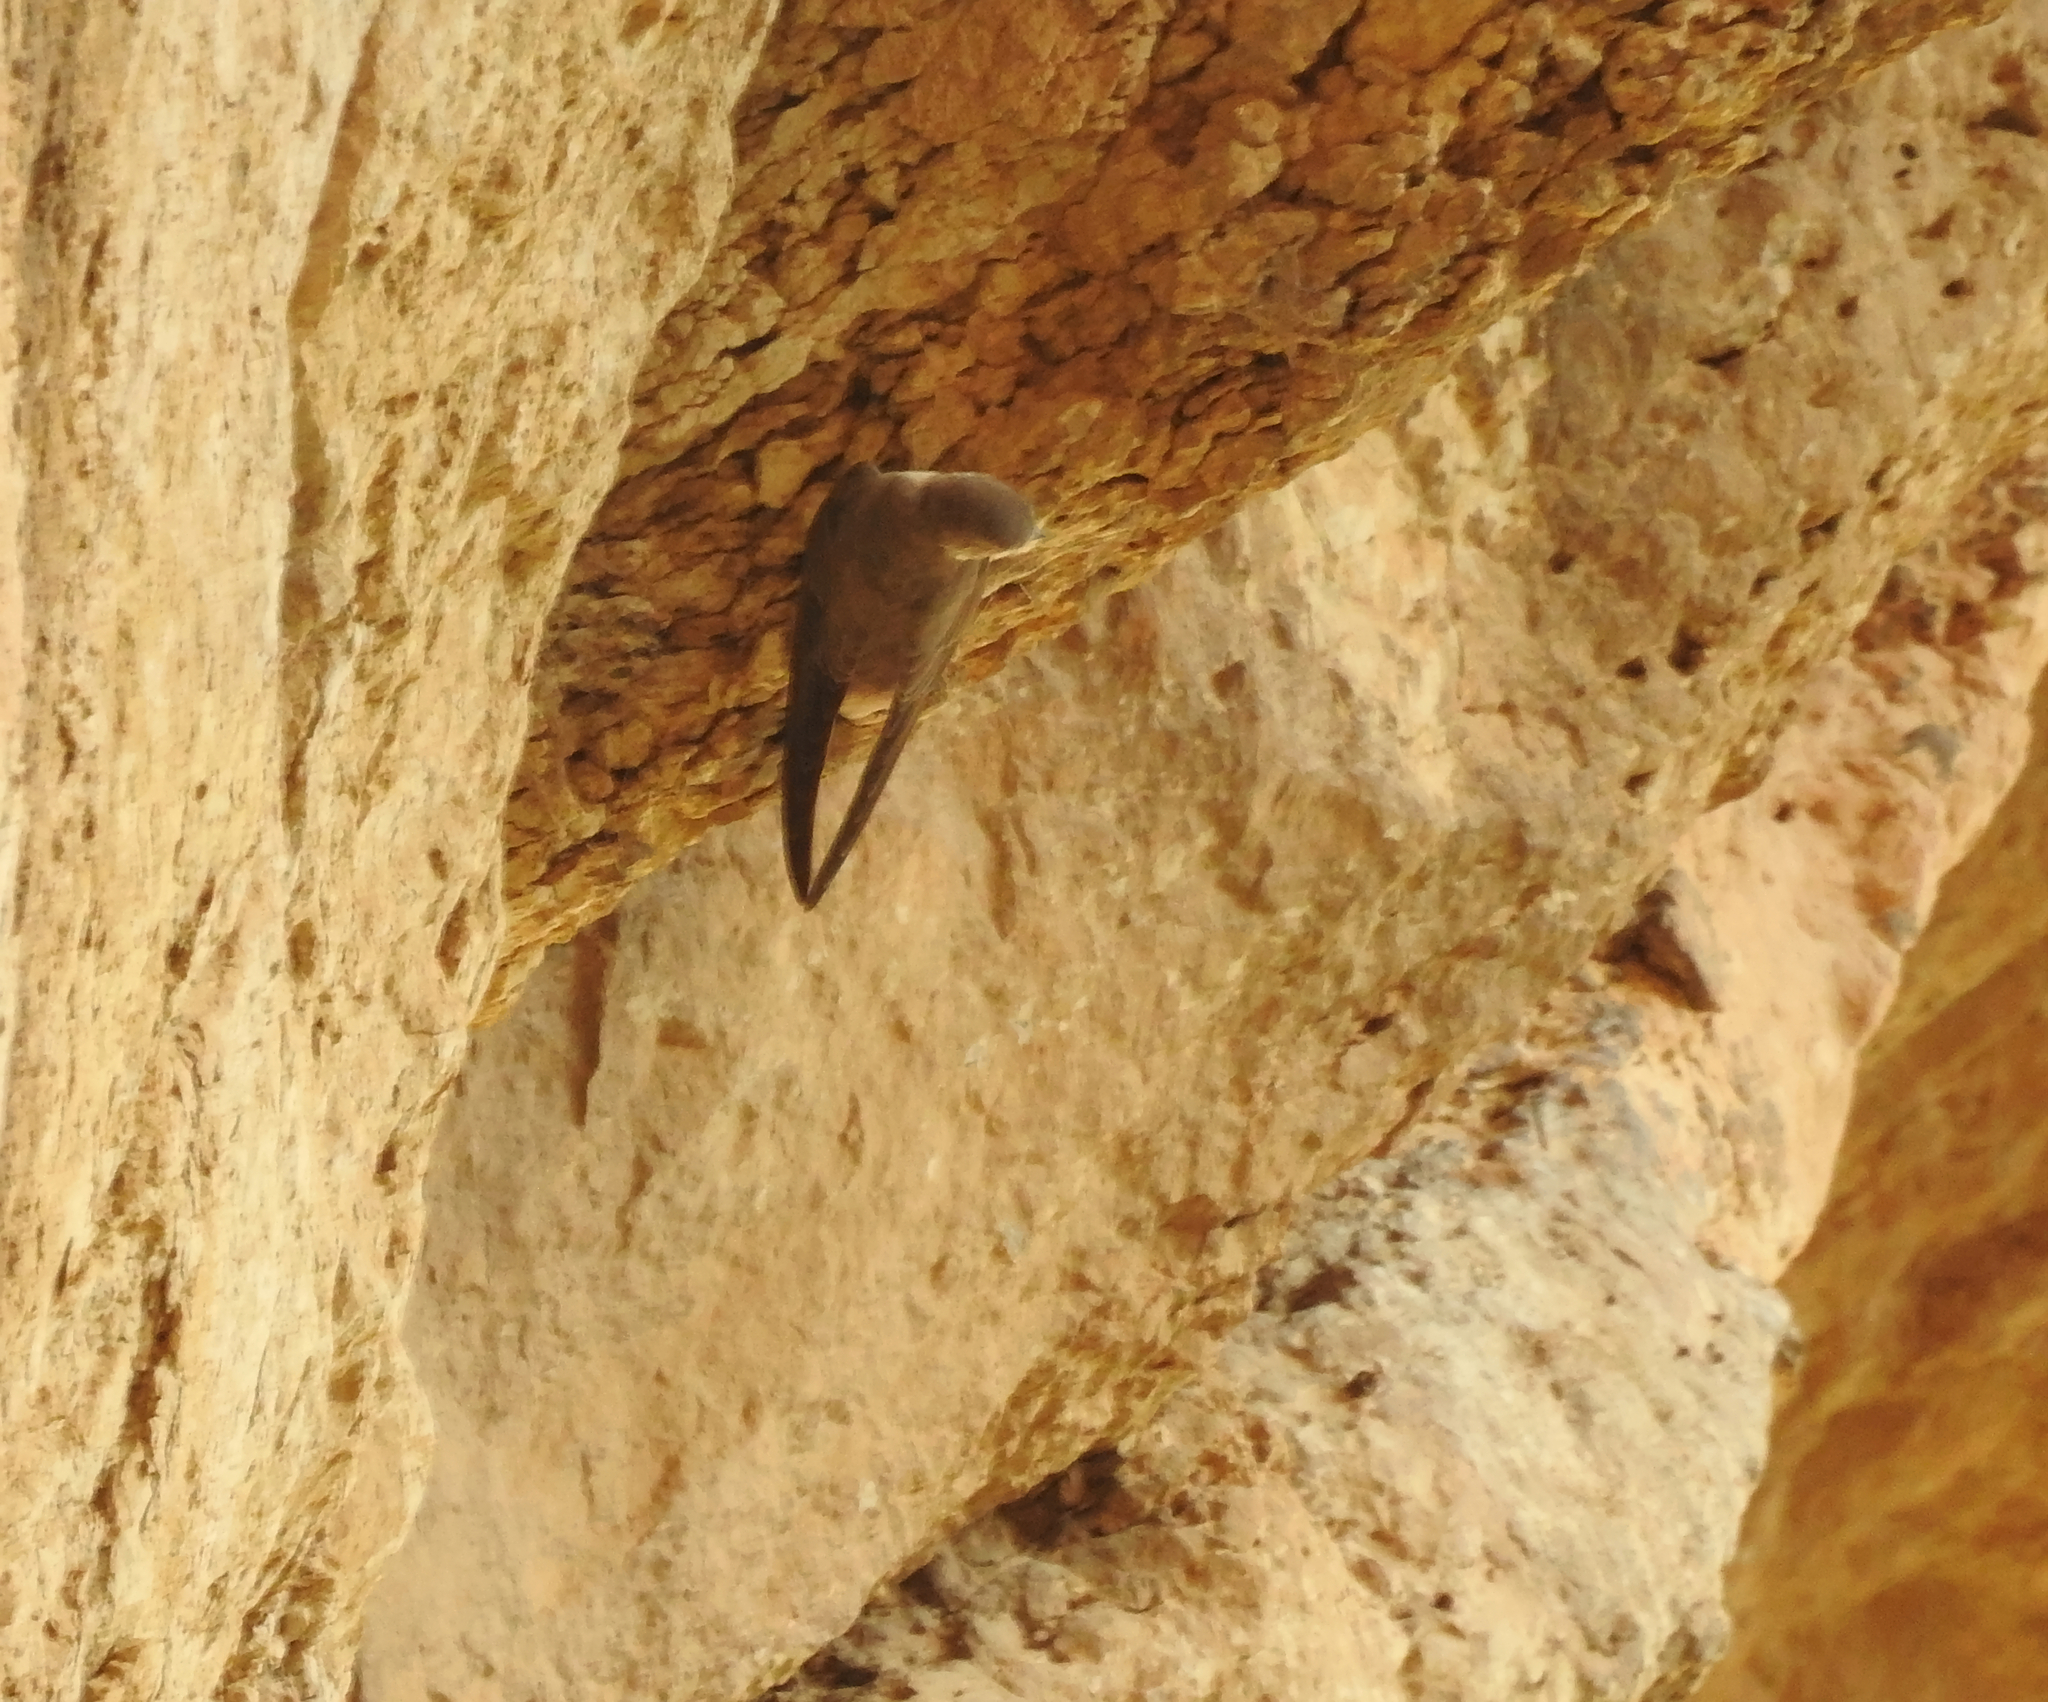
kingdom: Animalia
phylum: Chordata
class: Aves
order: Passeriformes
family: Hirundinidae
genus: Ptyonoprogne
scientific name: Ptyonoprogne rupestris
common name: Eurasian crag martin
